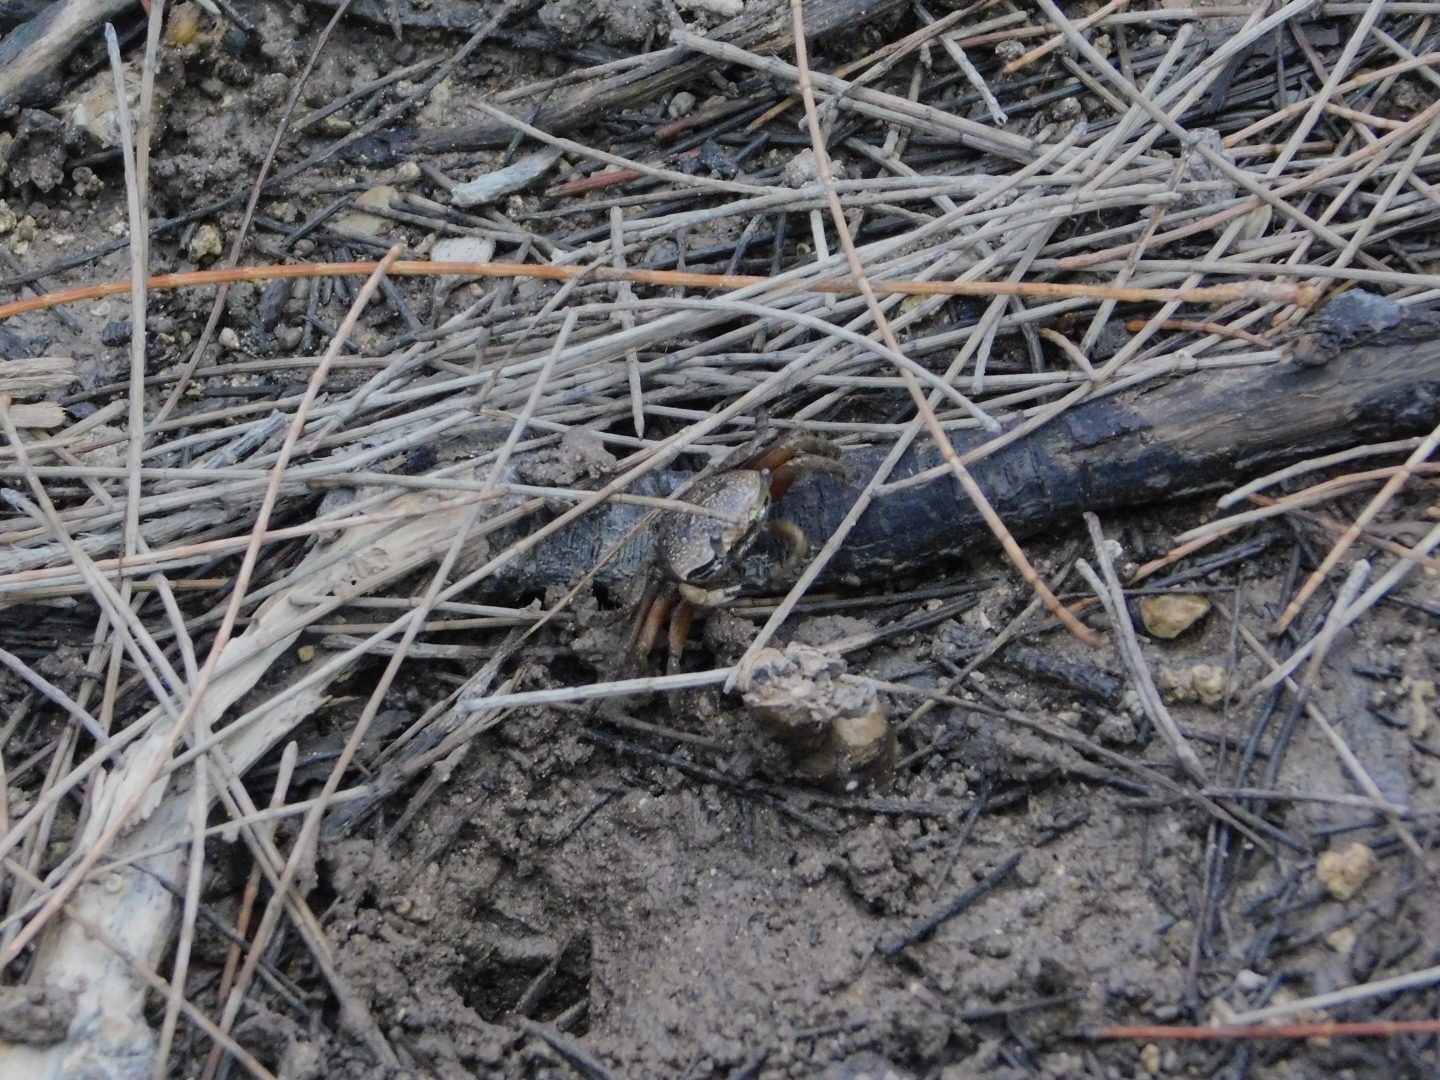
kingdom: Animalia
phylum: Arthropoda
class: Malacostraca
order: Decapoda
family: Ocypodidae
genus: Leptuca
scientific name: Leptuca pugilator
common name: Atlantic sand fiddler crab
